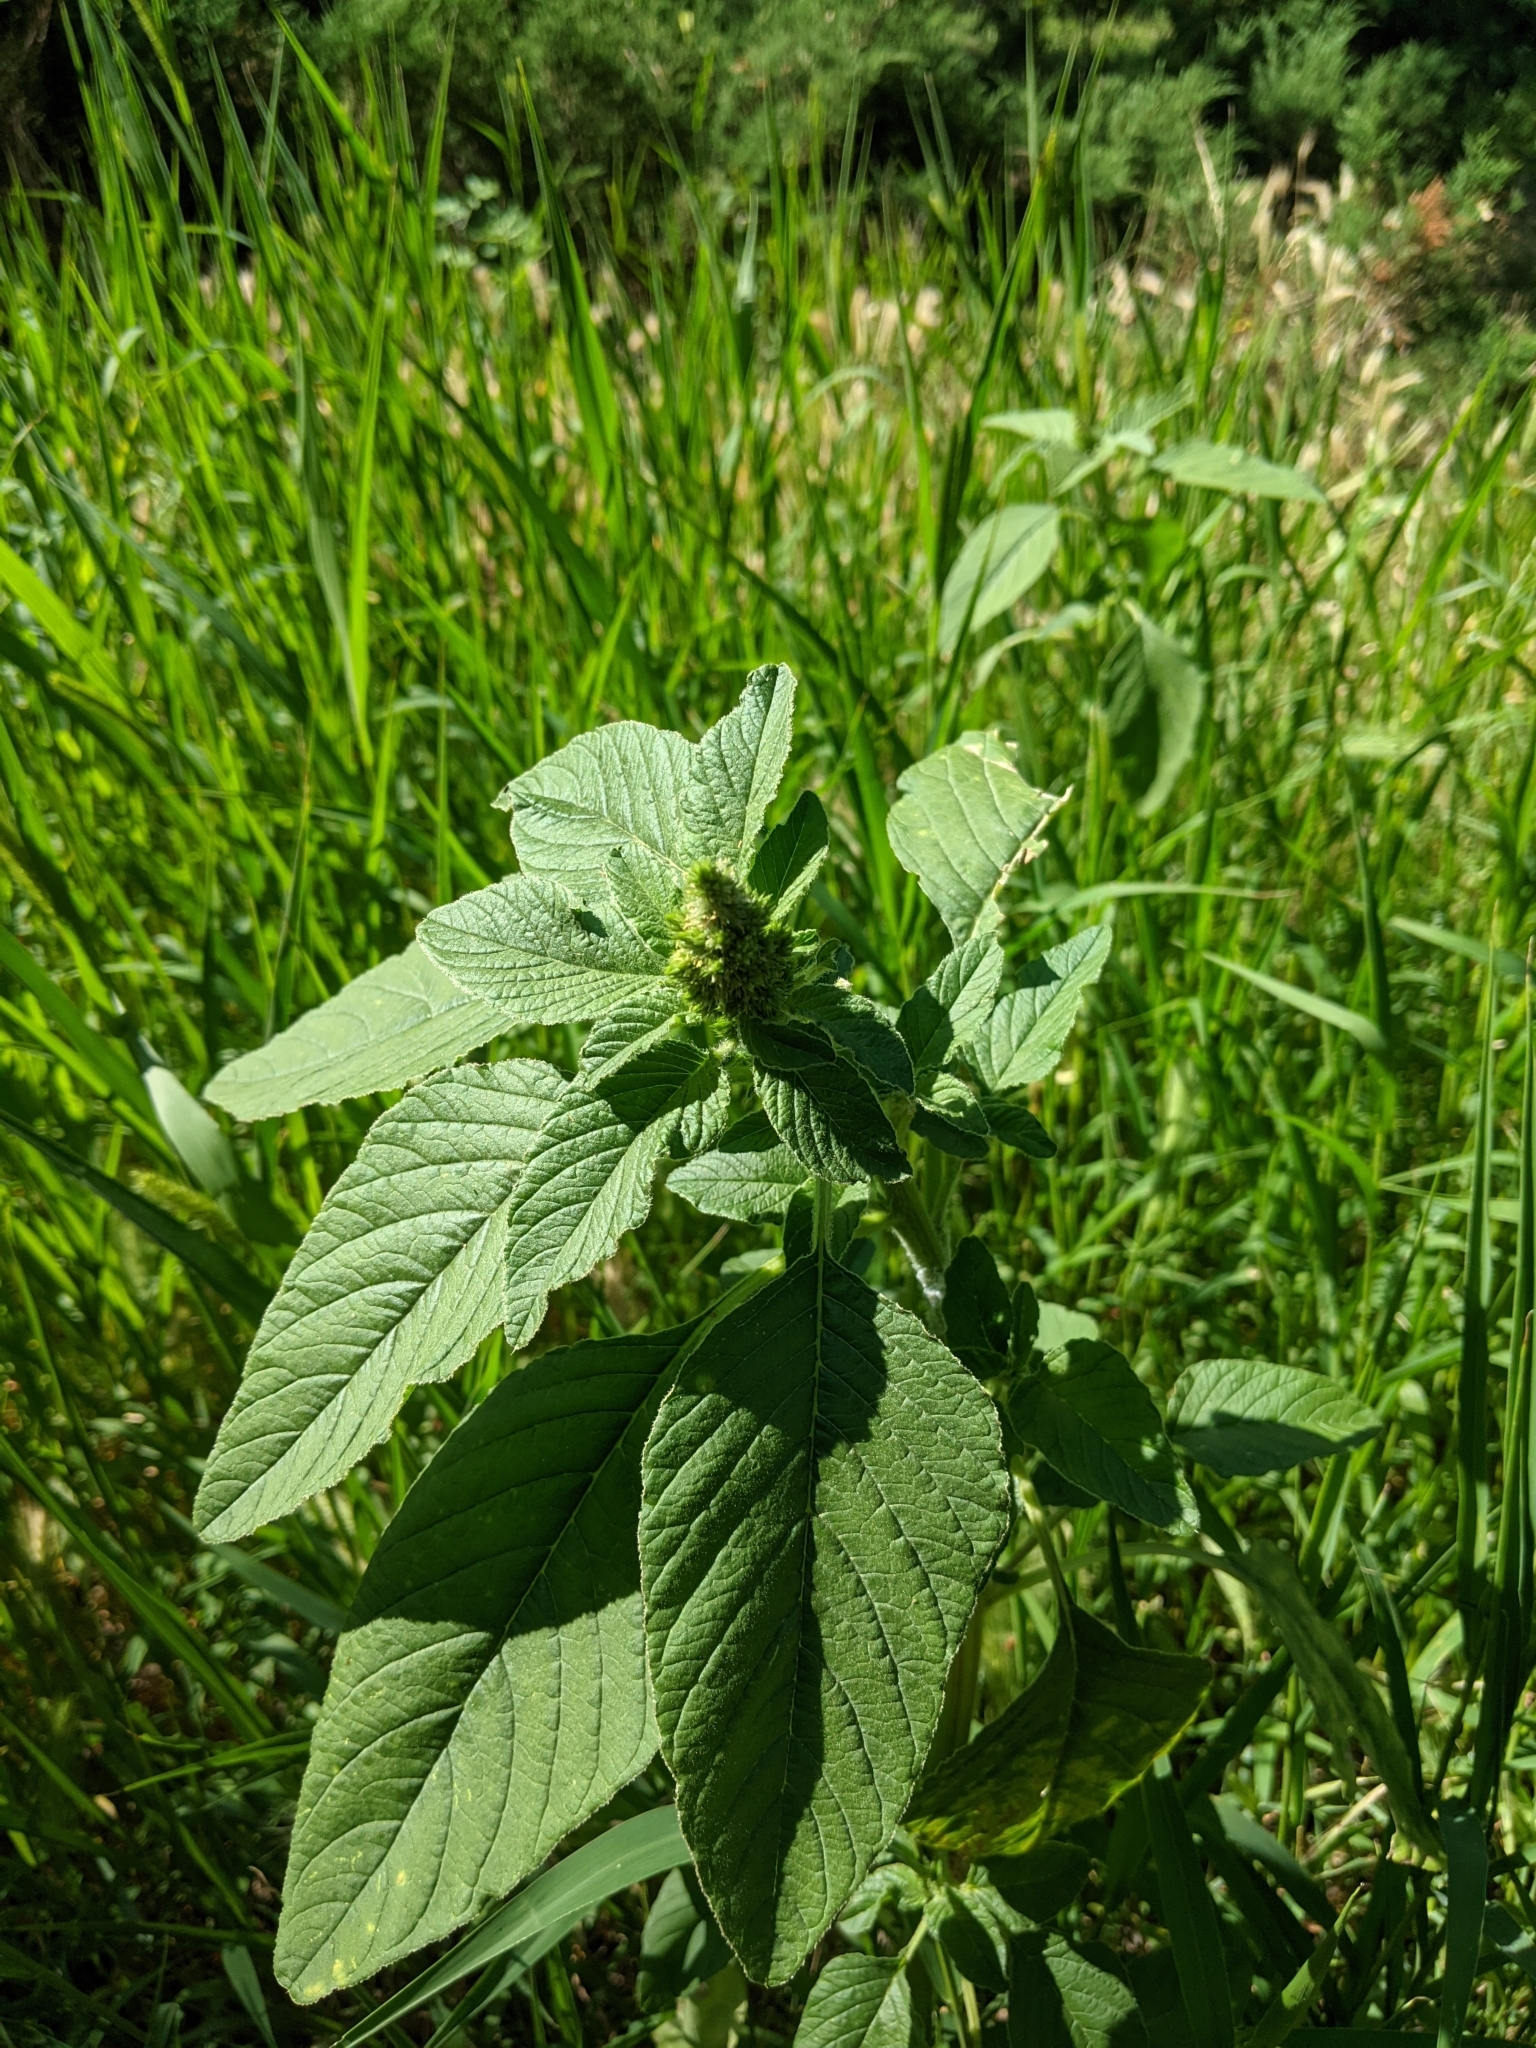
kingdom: Plantae
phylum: Tracheophyta
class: Magnoliopsida
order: Caryophyllales
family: Amaranthaceae
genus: Amaranthus
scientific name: Amaranthus retroflexus
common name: Redroot amaranth
